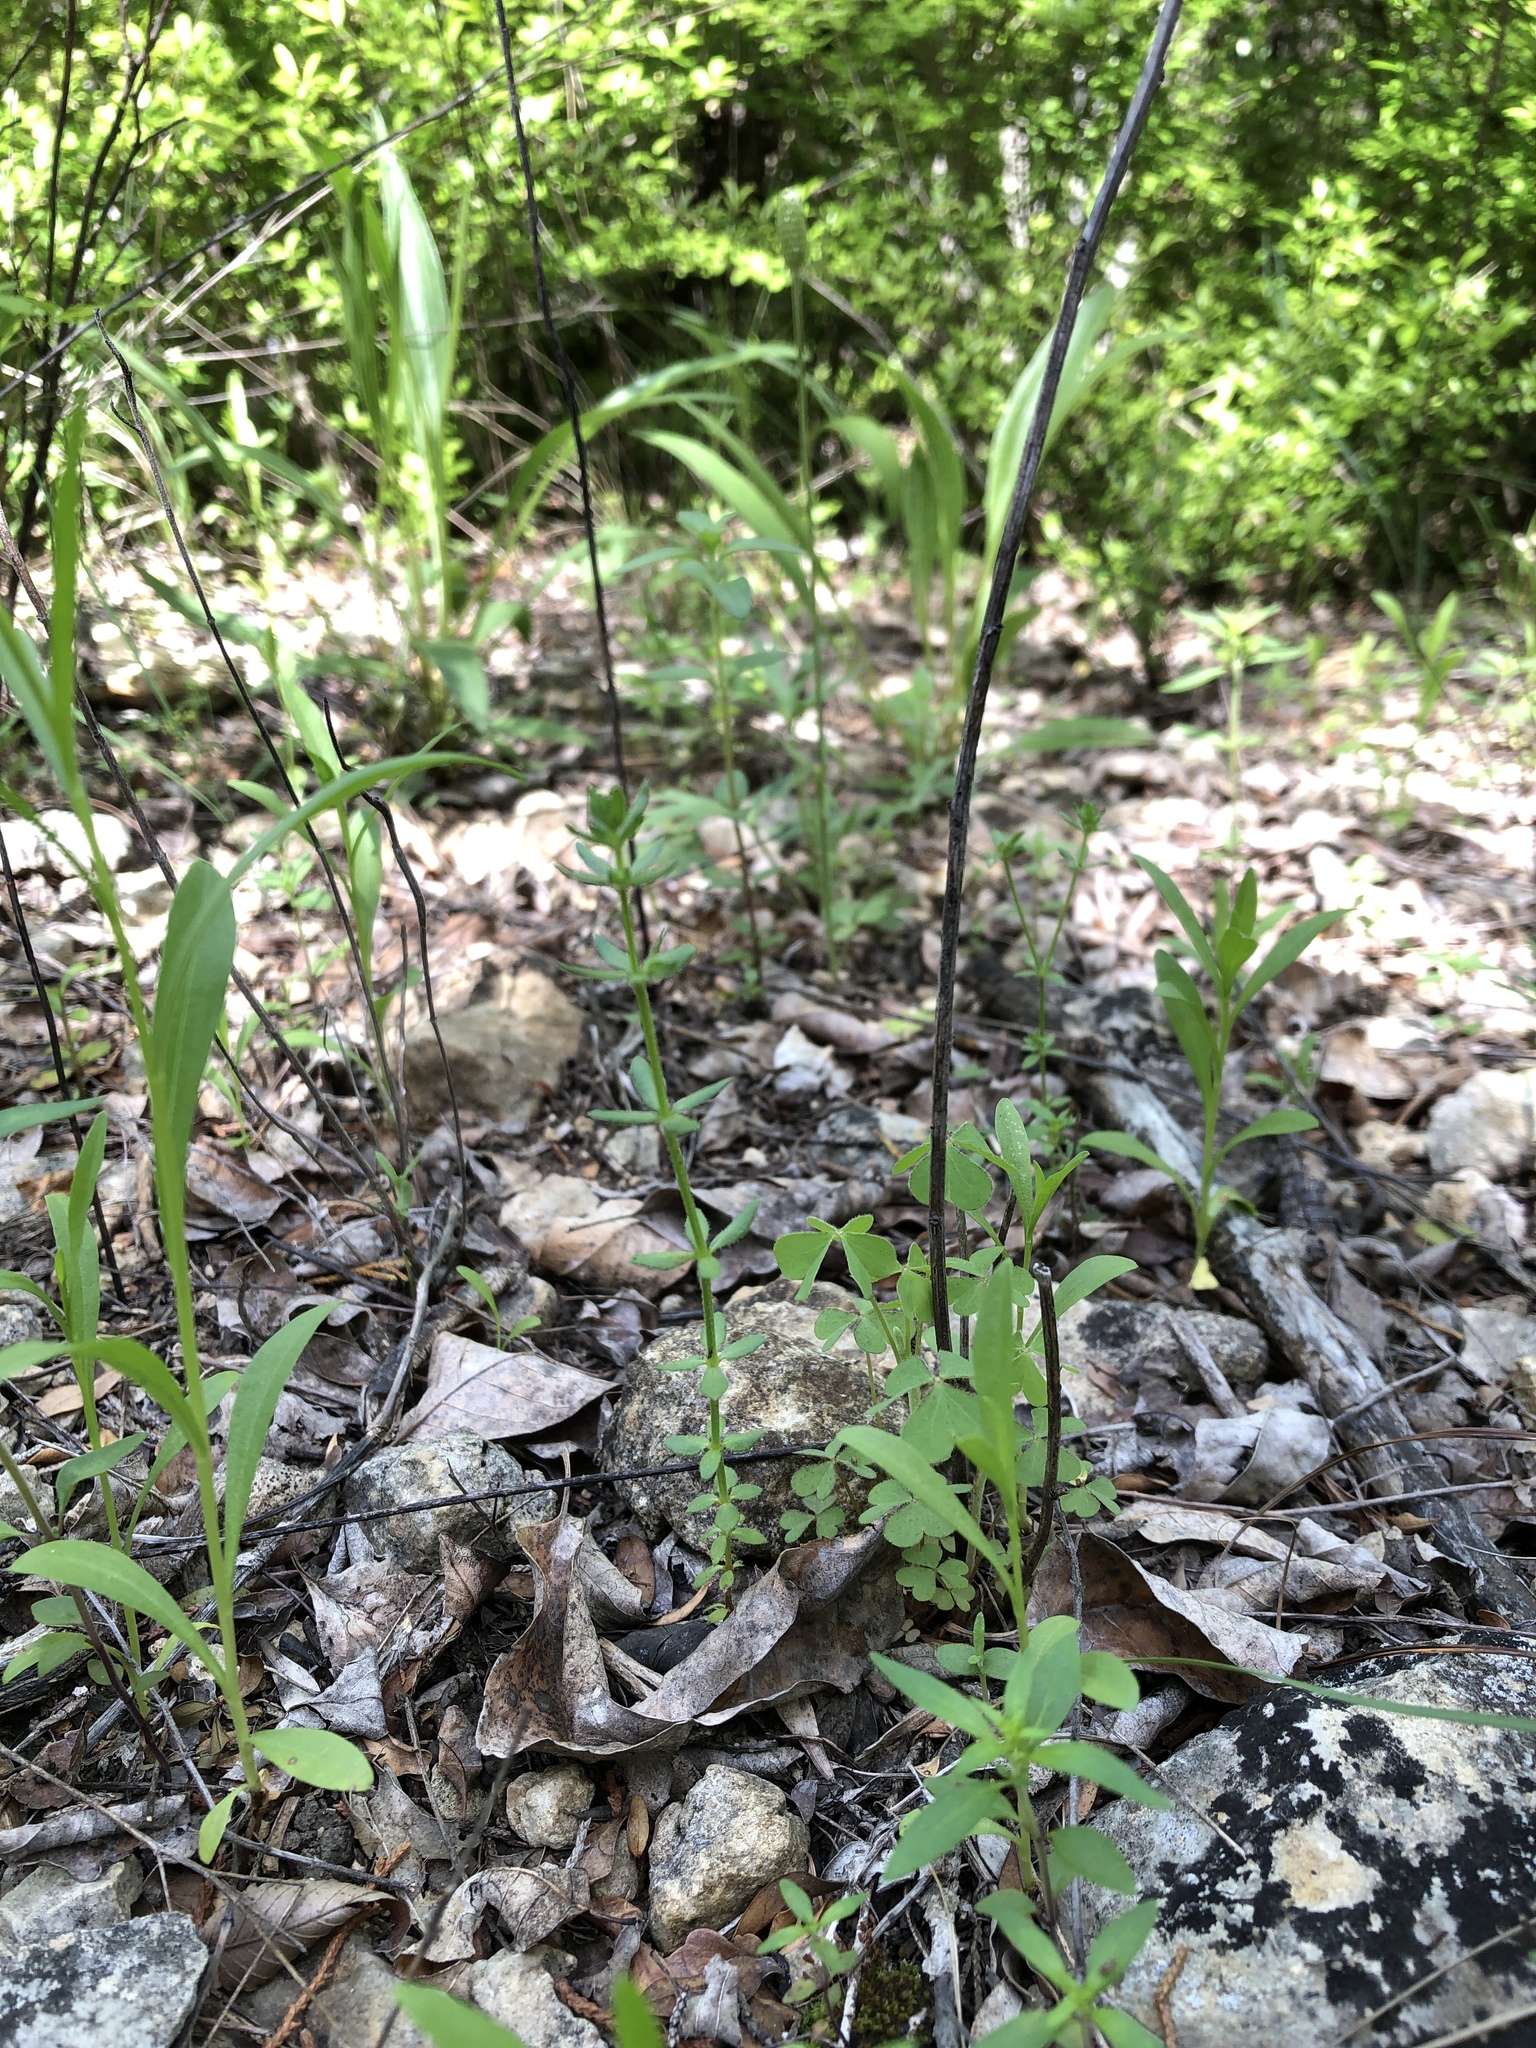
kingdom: Plantae
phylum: Tracheophyta
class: Magnoliopsida
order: Gentianales
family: Rubiaceae
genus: Galium
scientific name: Galium virgatum
